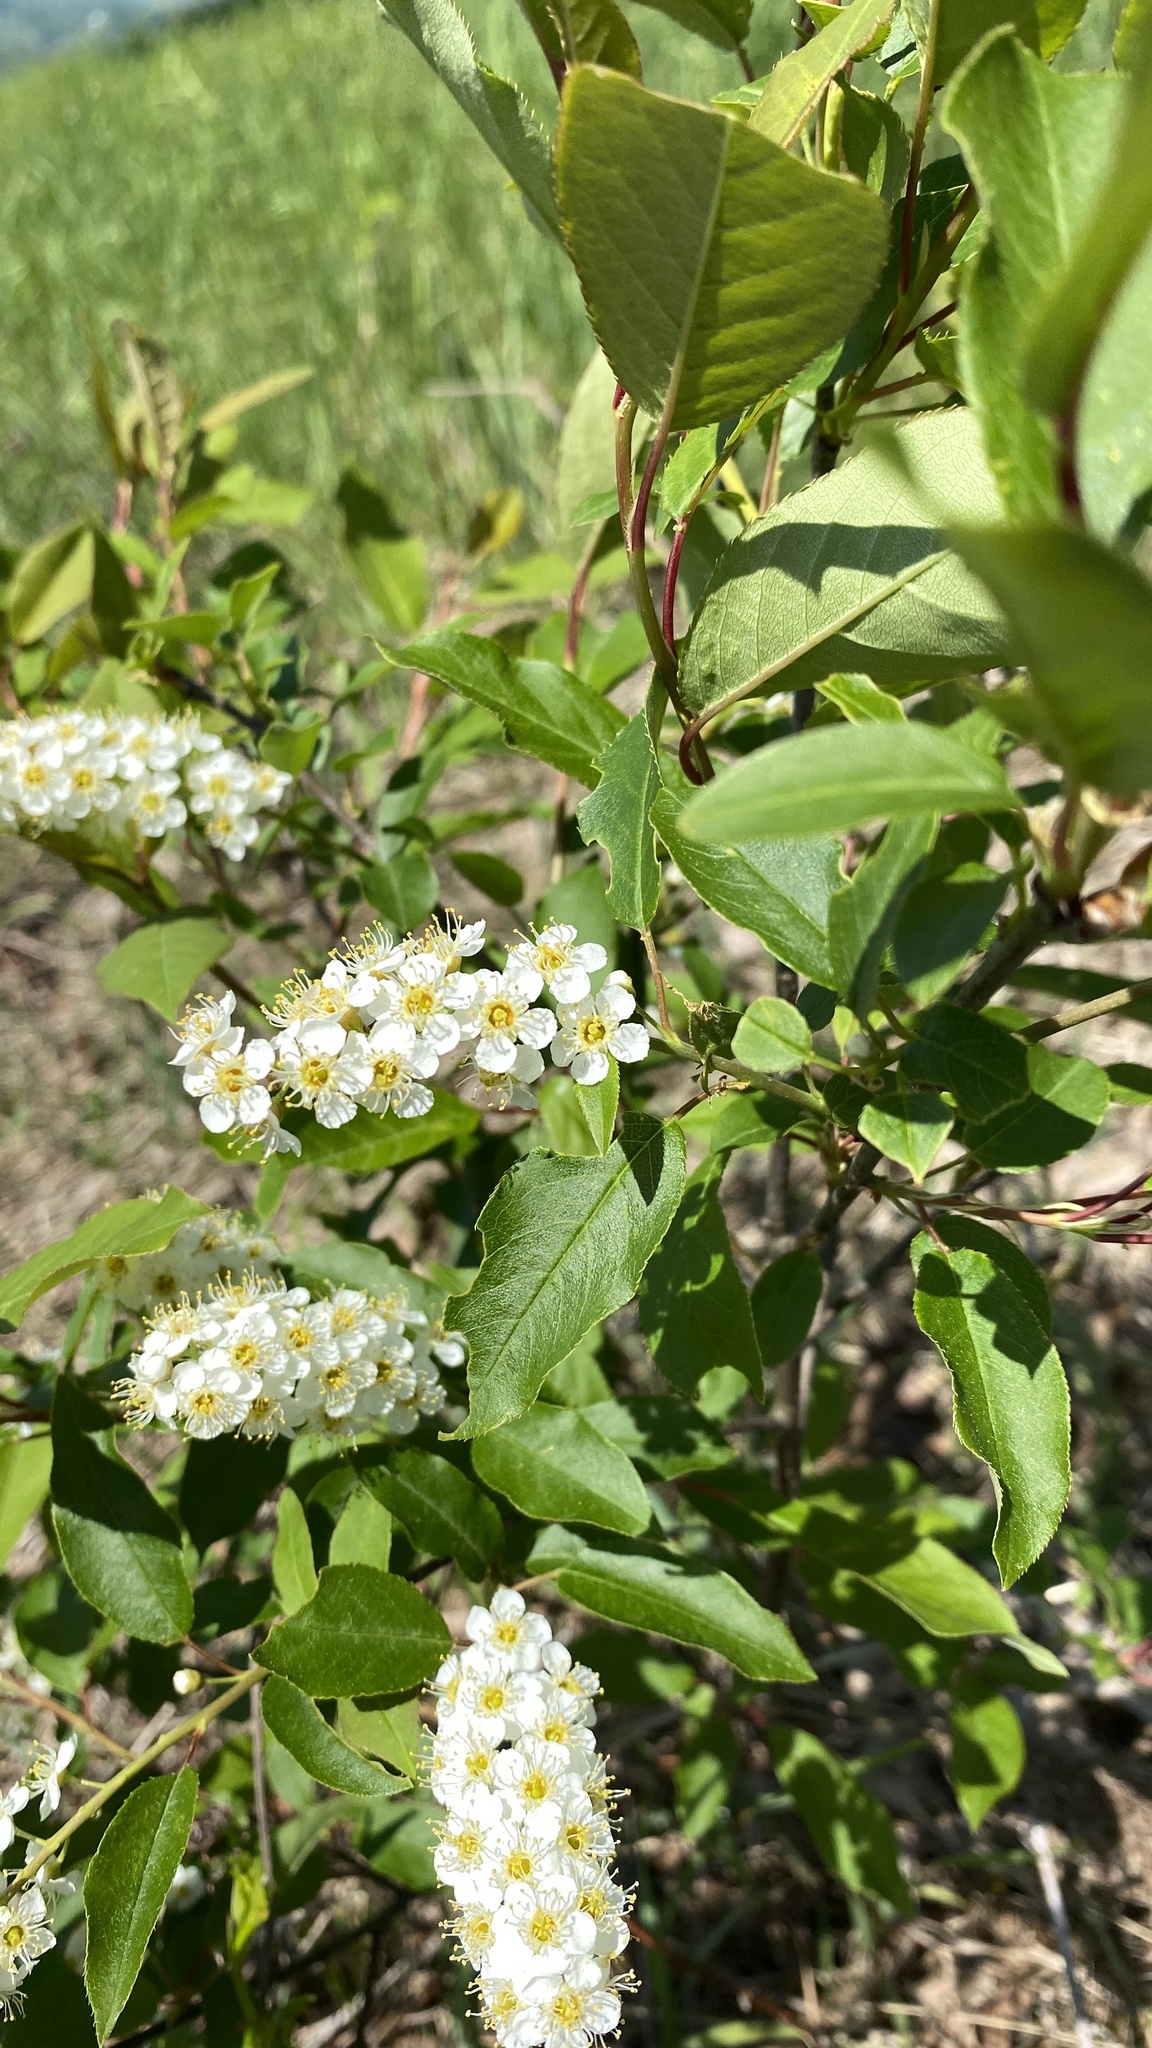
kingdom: Plantae
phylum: Tracheophyta
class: Magnoliopsida
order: Rosales
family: Rosaceae
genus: Prunus
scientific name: Prunus virginiana
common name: Chokecherry
